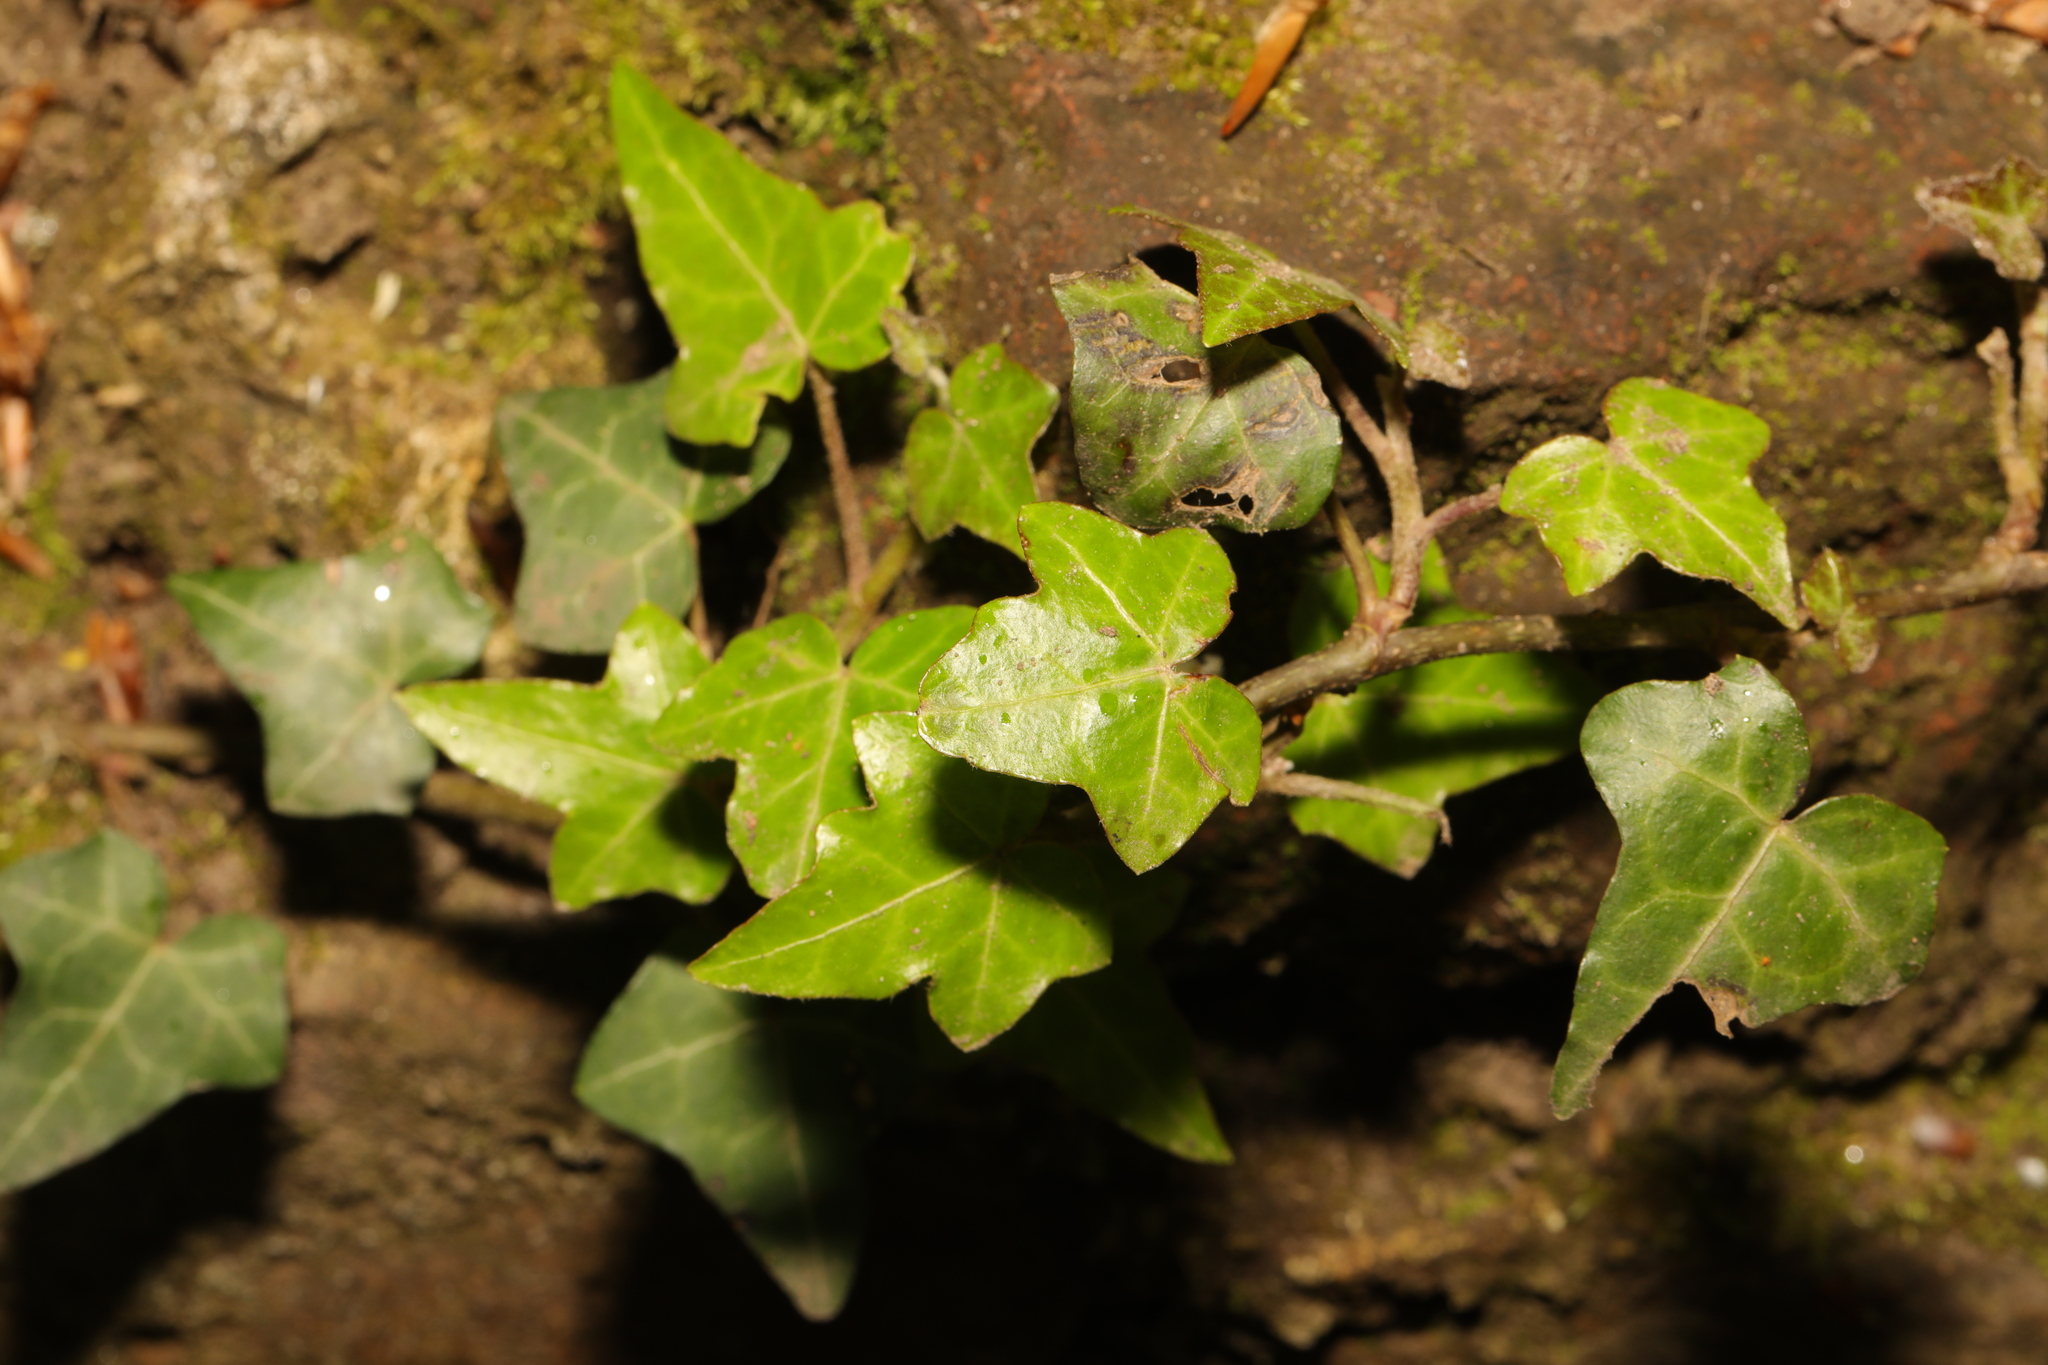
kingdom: Plantae
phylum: Tracheophyta
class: Magnoliopsida
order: Apiales
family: Araliaceae
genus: Hedera
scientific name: Hedera helix
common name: Ivy
